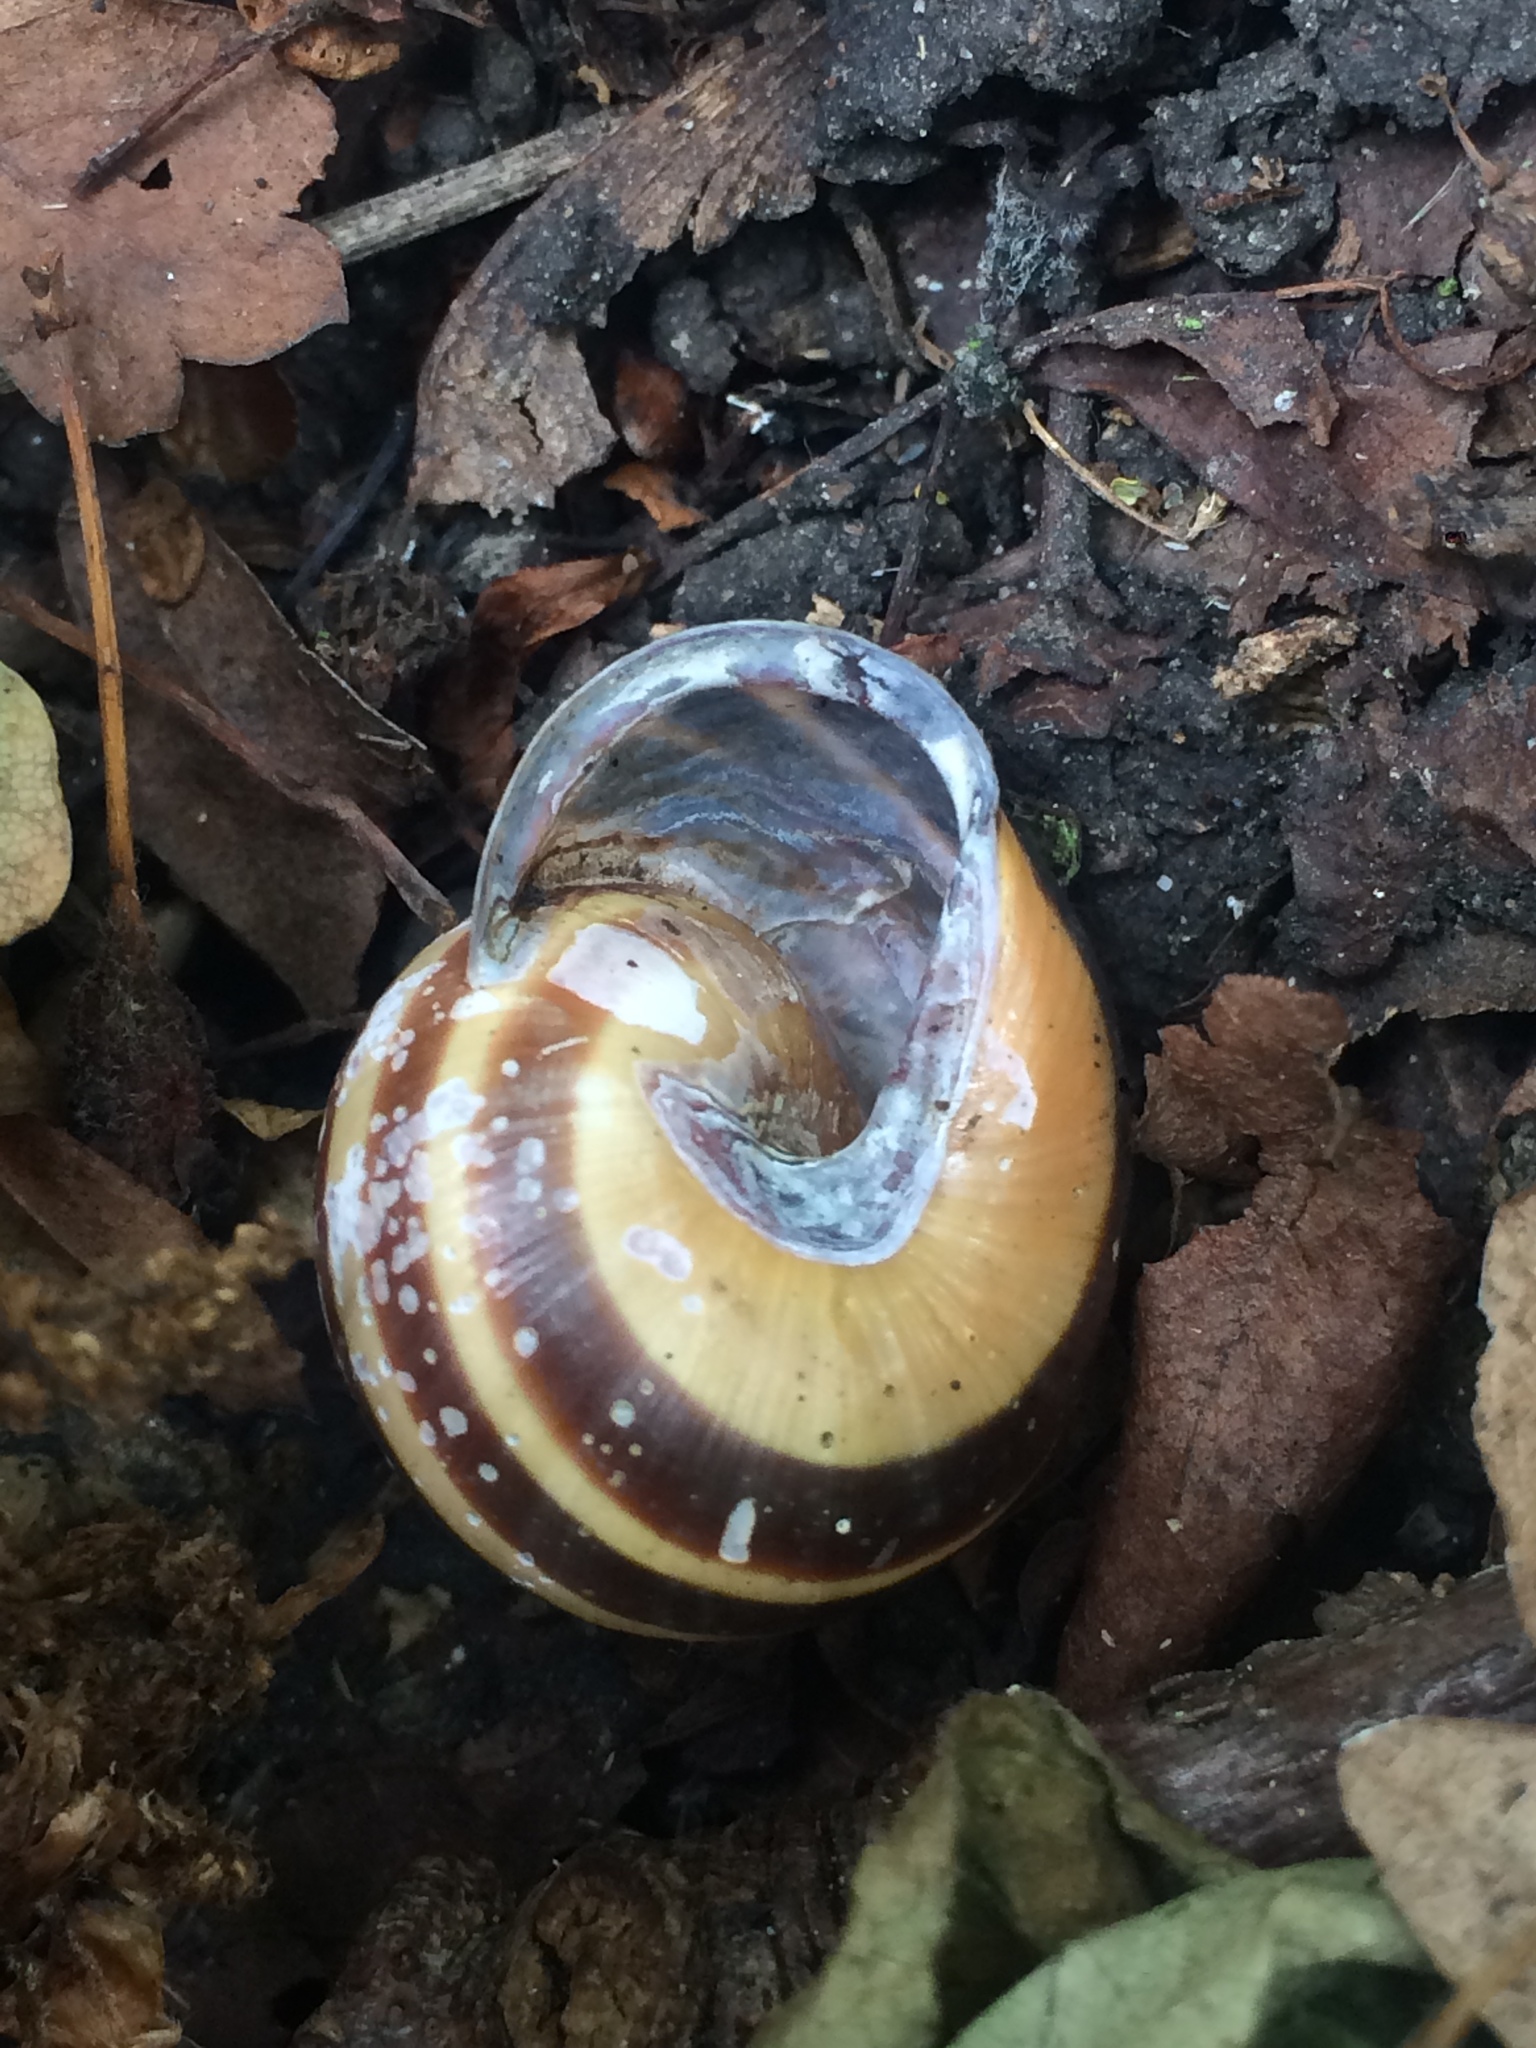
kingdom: Animalia
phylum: Mollusca
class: Gastropoda
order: Stylommatophora
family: Helicidae
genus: Cepaea
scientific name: Cepaea nemoralis
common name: Grovesnail
